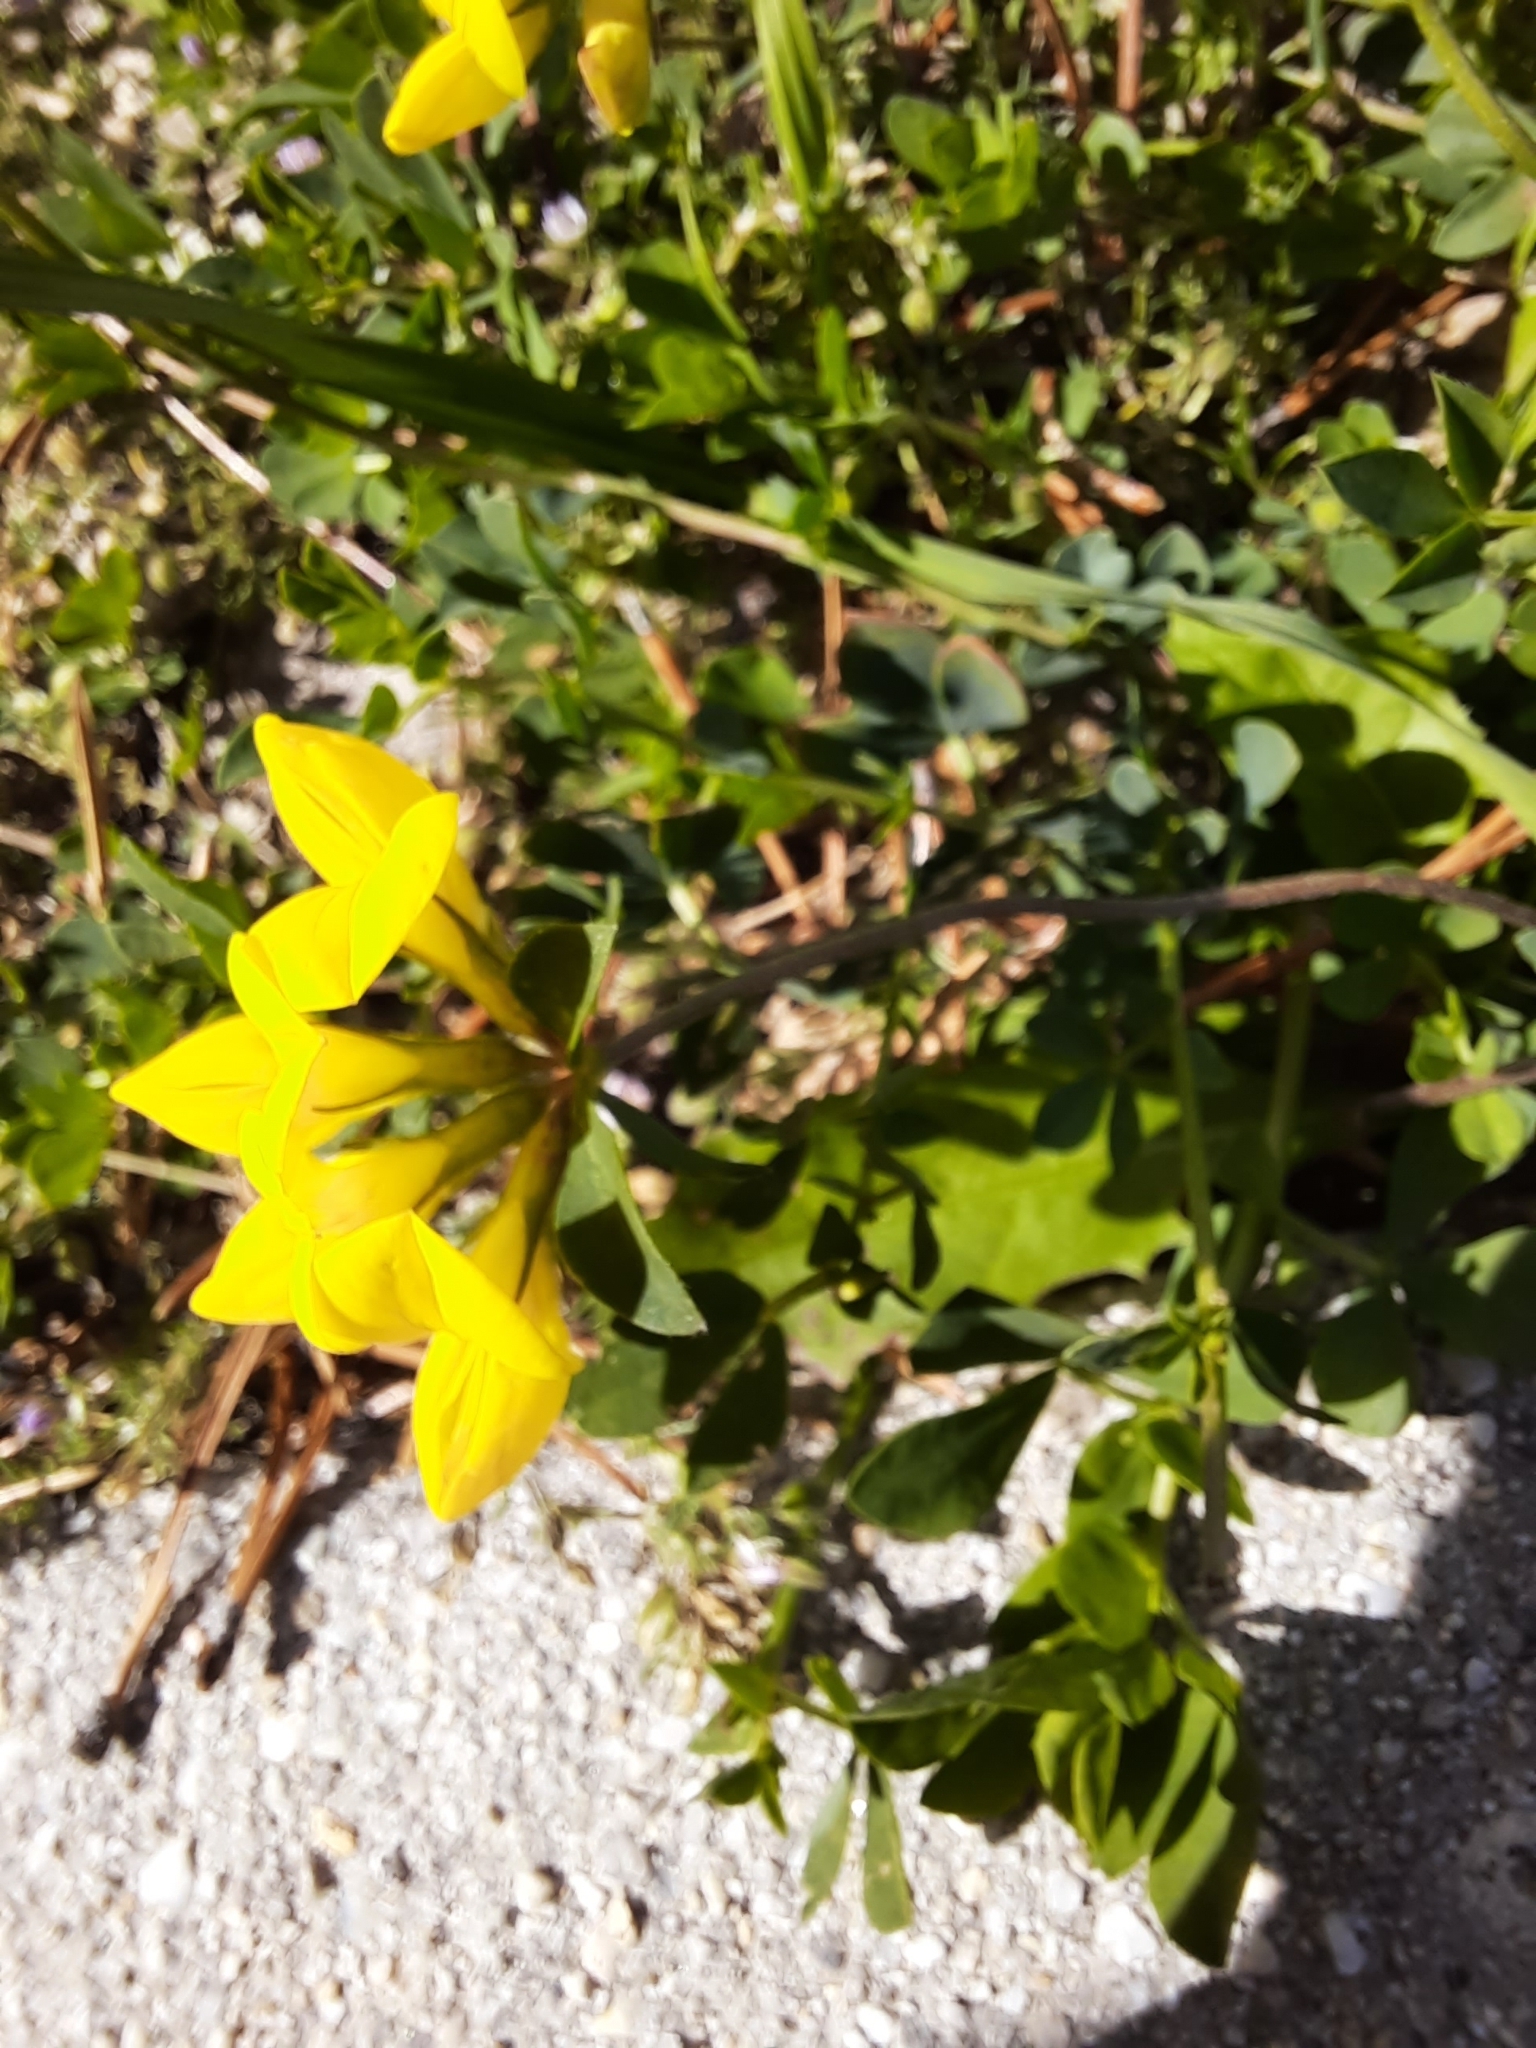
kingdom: Plantae
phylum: Tracheophyta
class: Magnoliopsida
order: Fabales
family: Fabaceae
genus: Lotus
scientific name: Lotus corniculatus
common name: Common bird's-foot-trefoil
